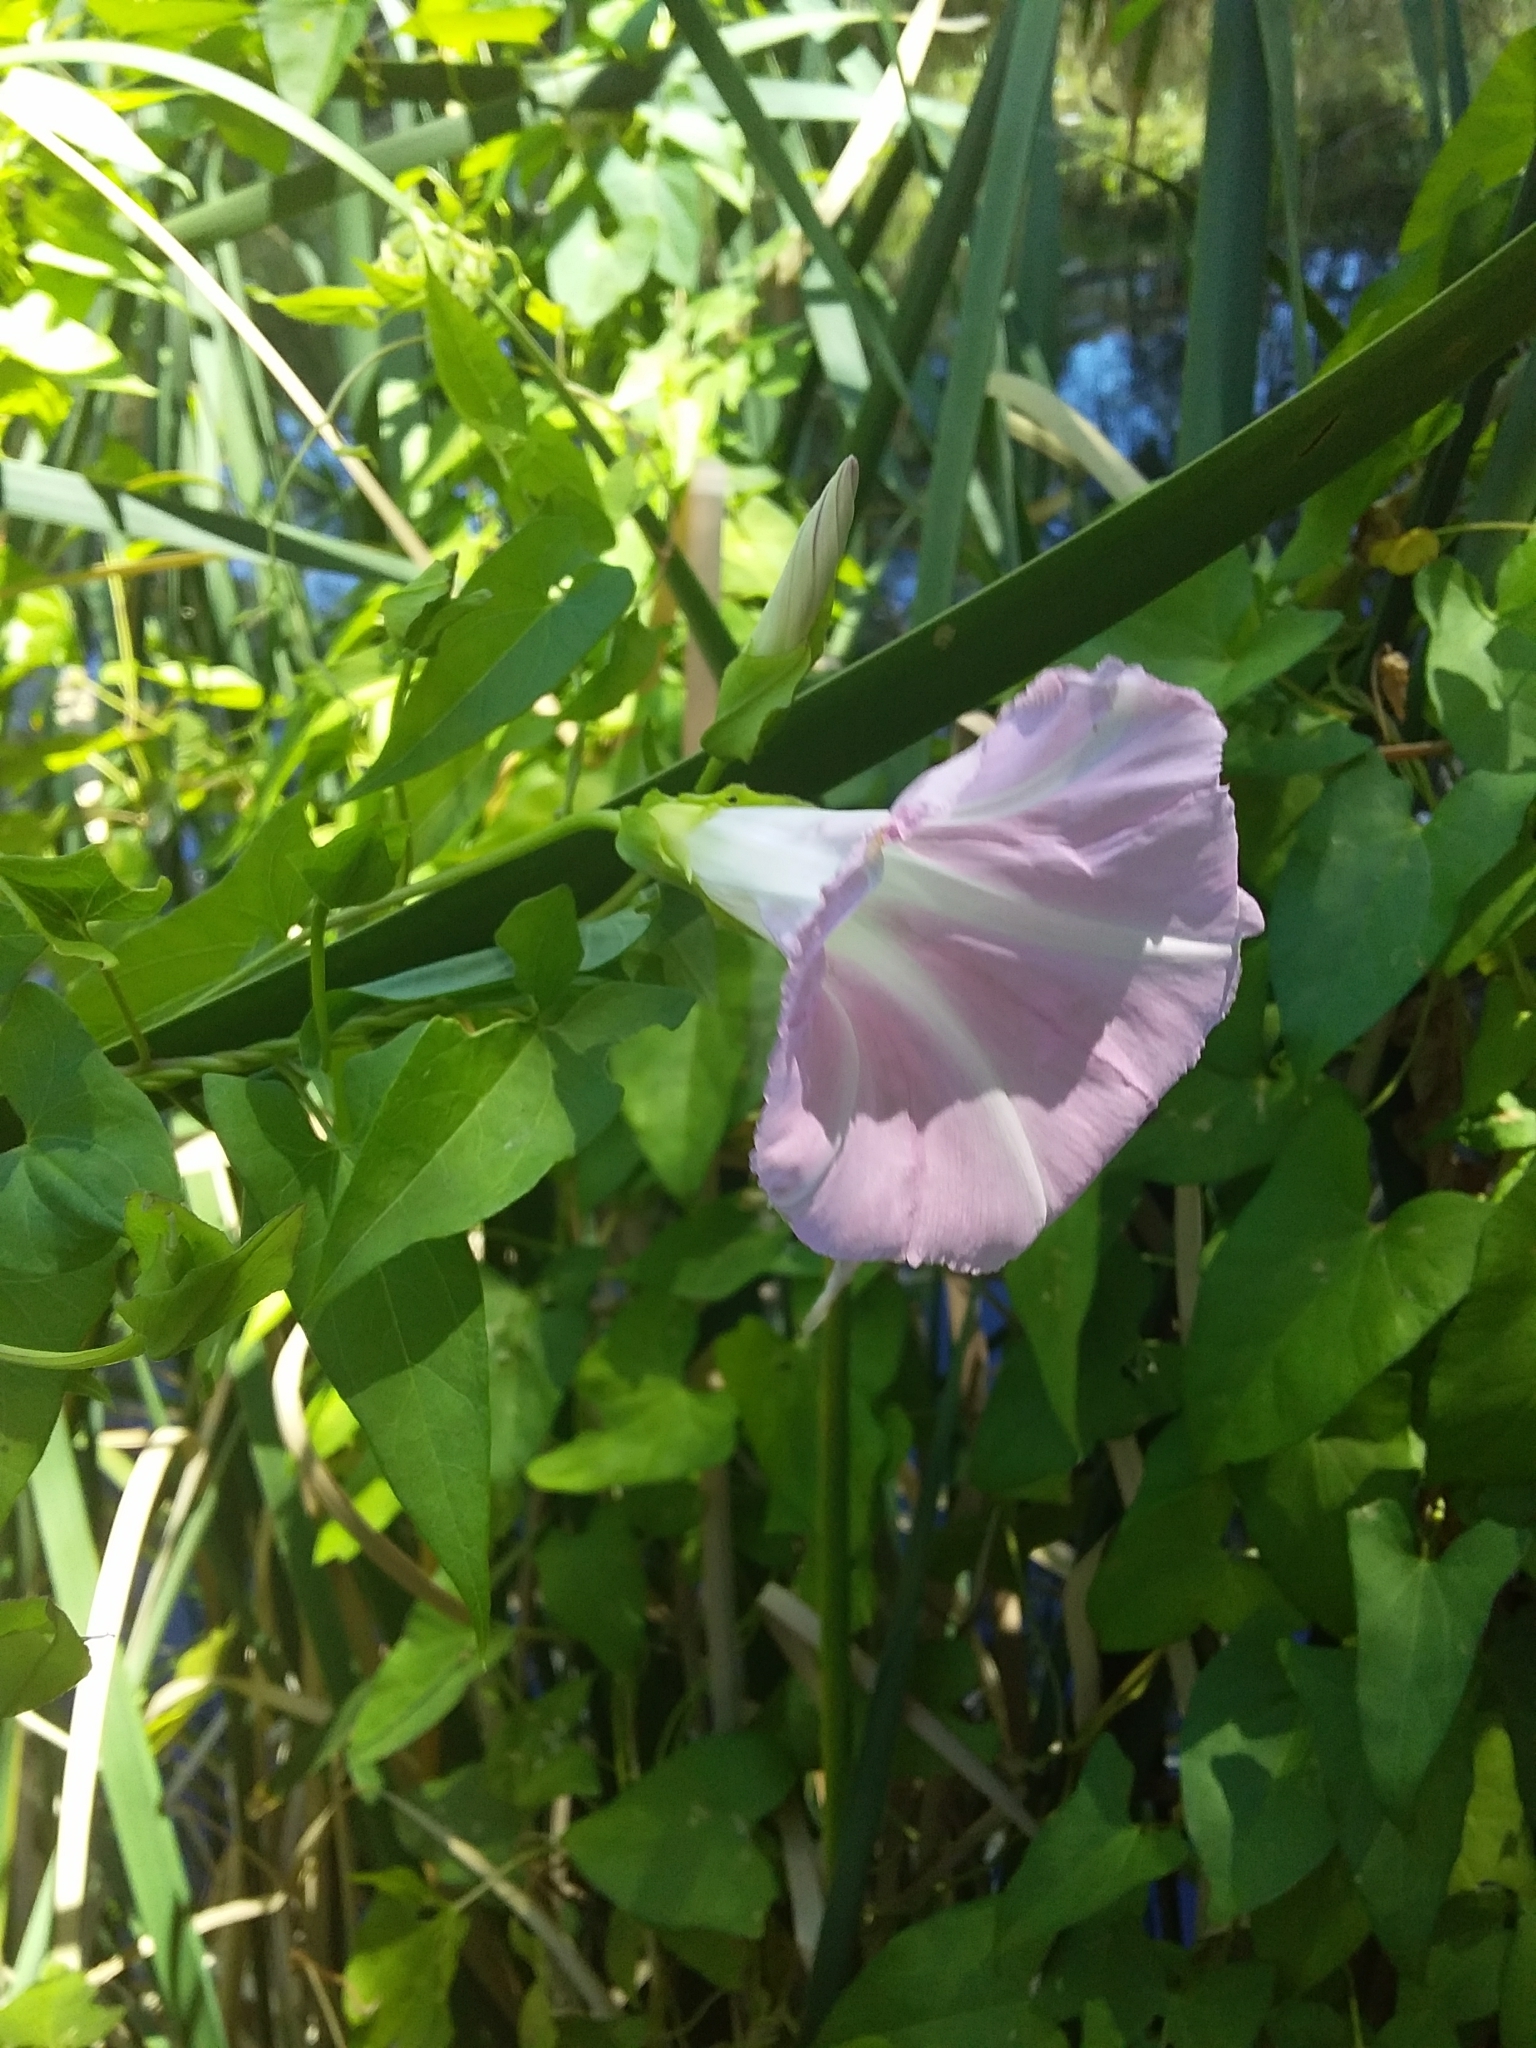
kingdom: Plantae
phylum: Tracheophyta
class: Magnoliopsida
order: Solanales
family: Convolvulaceae
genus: Calystegia
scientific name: Calystegia sepium
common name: Hedge bindweed
